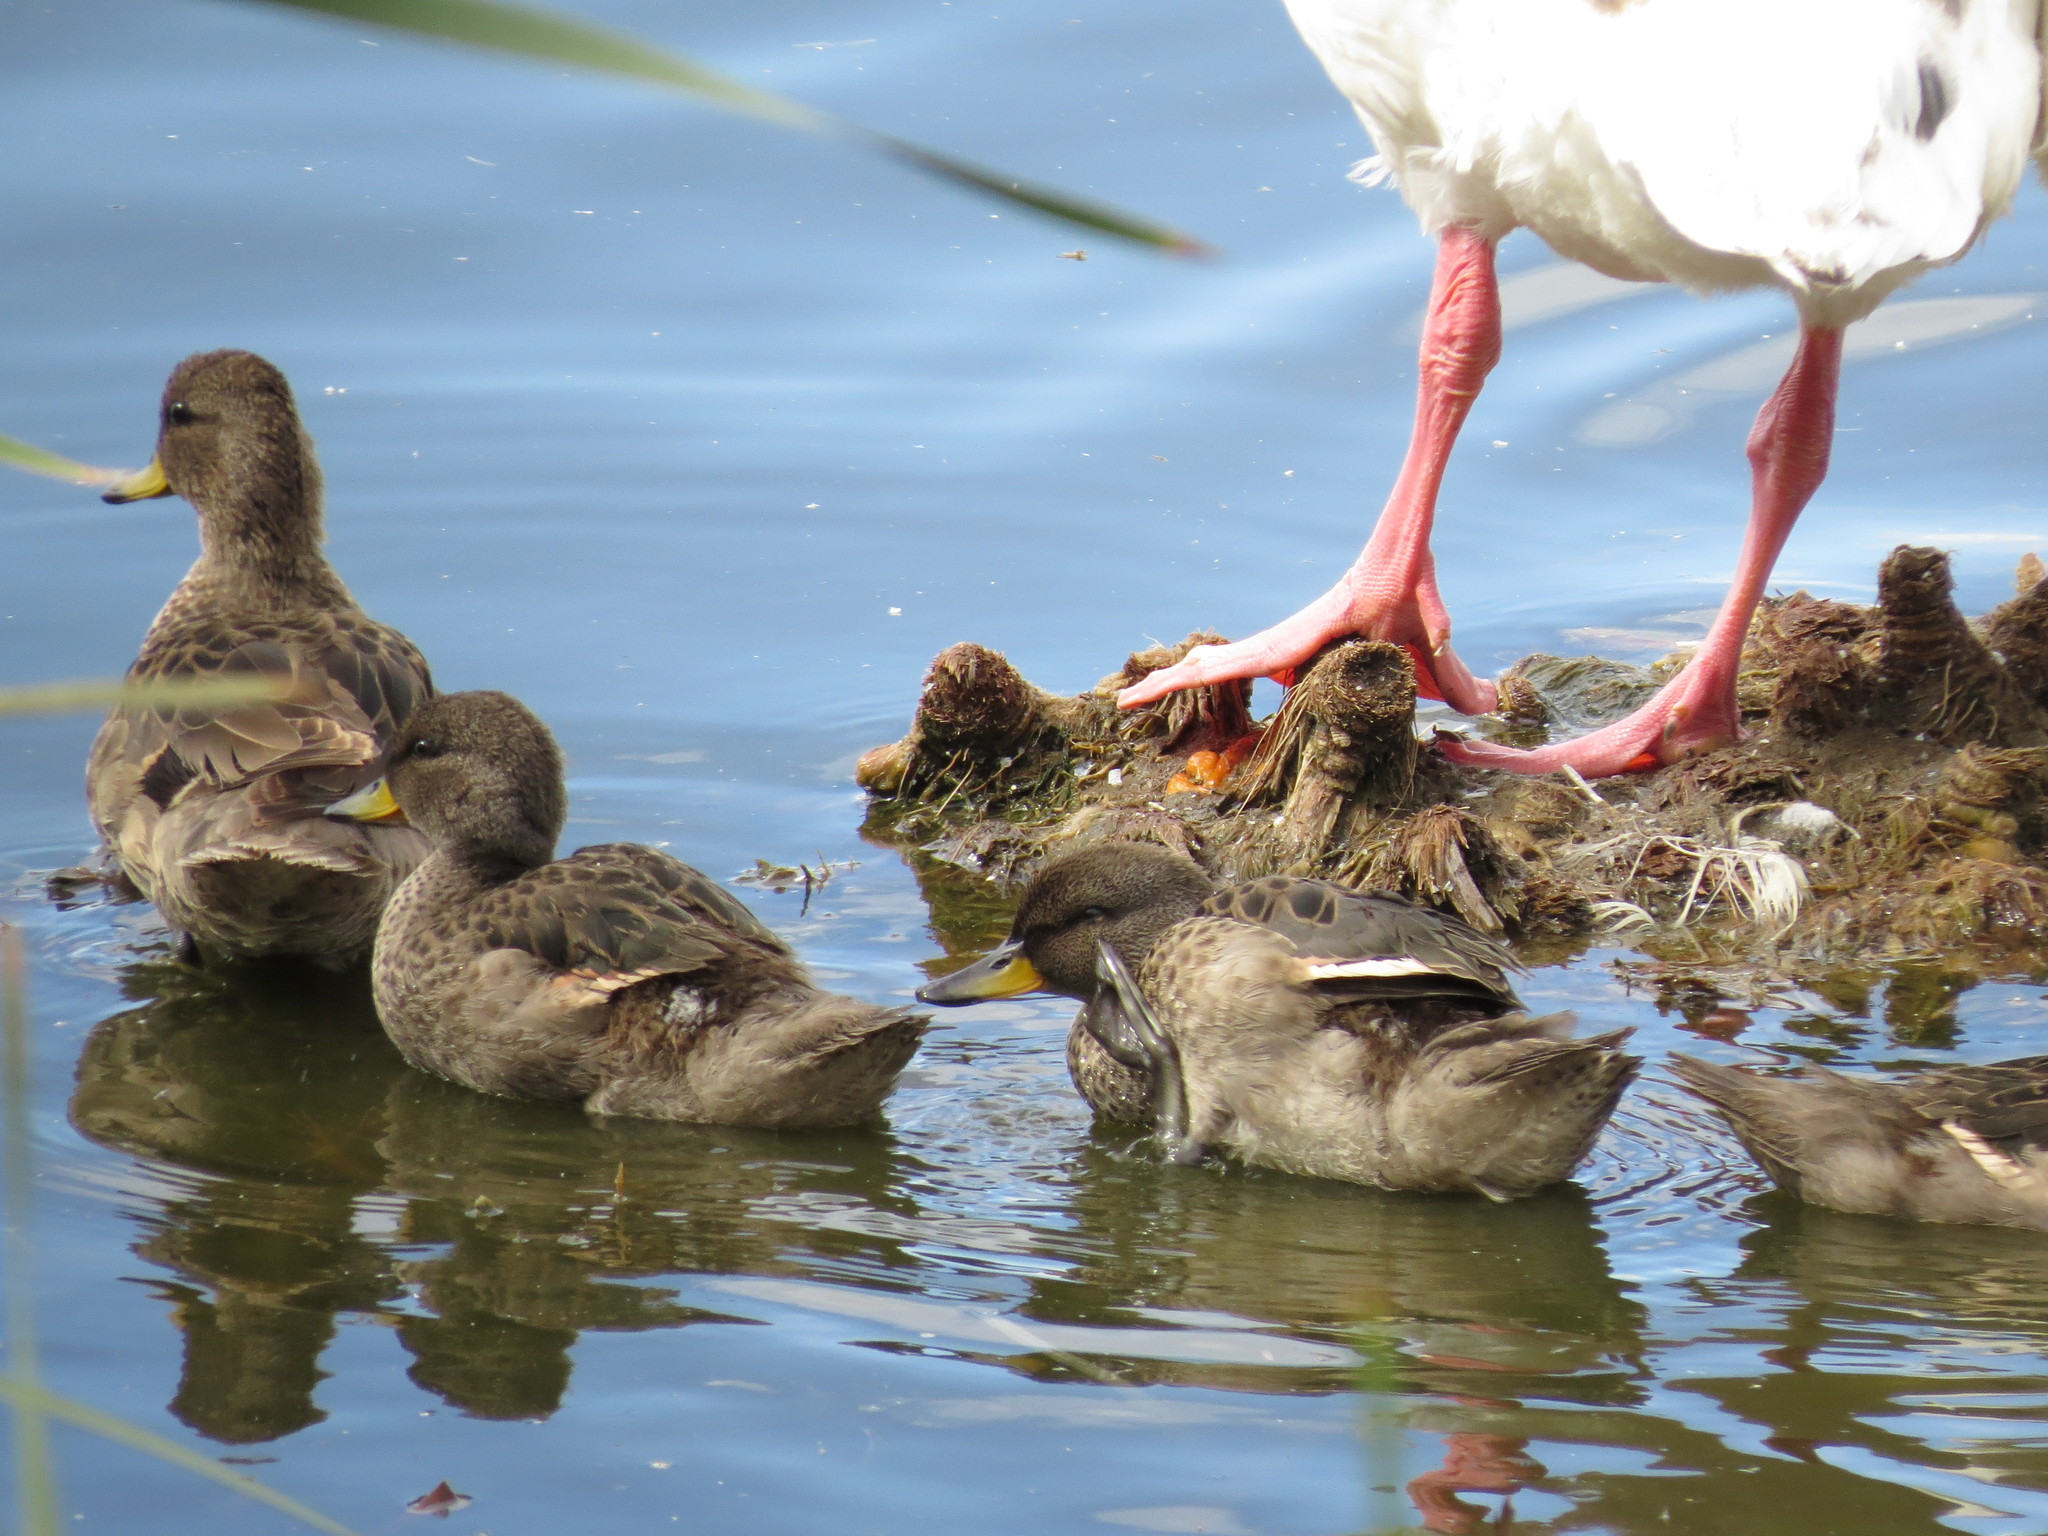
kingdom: Animalia
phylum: Chordata
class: Aves
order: Anseriformes
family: Anatidae
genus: Anas
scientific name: Anas flavirostris
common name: Yellow-billed teal
